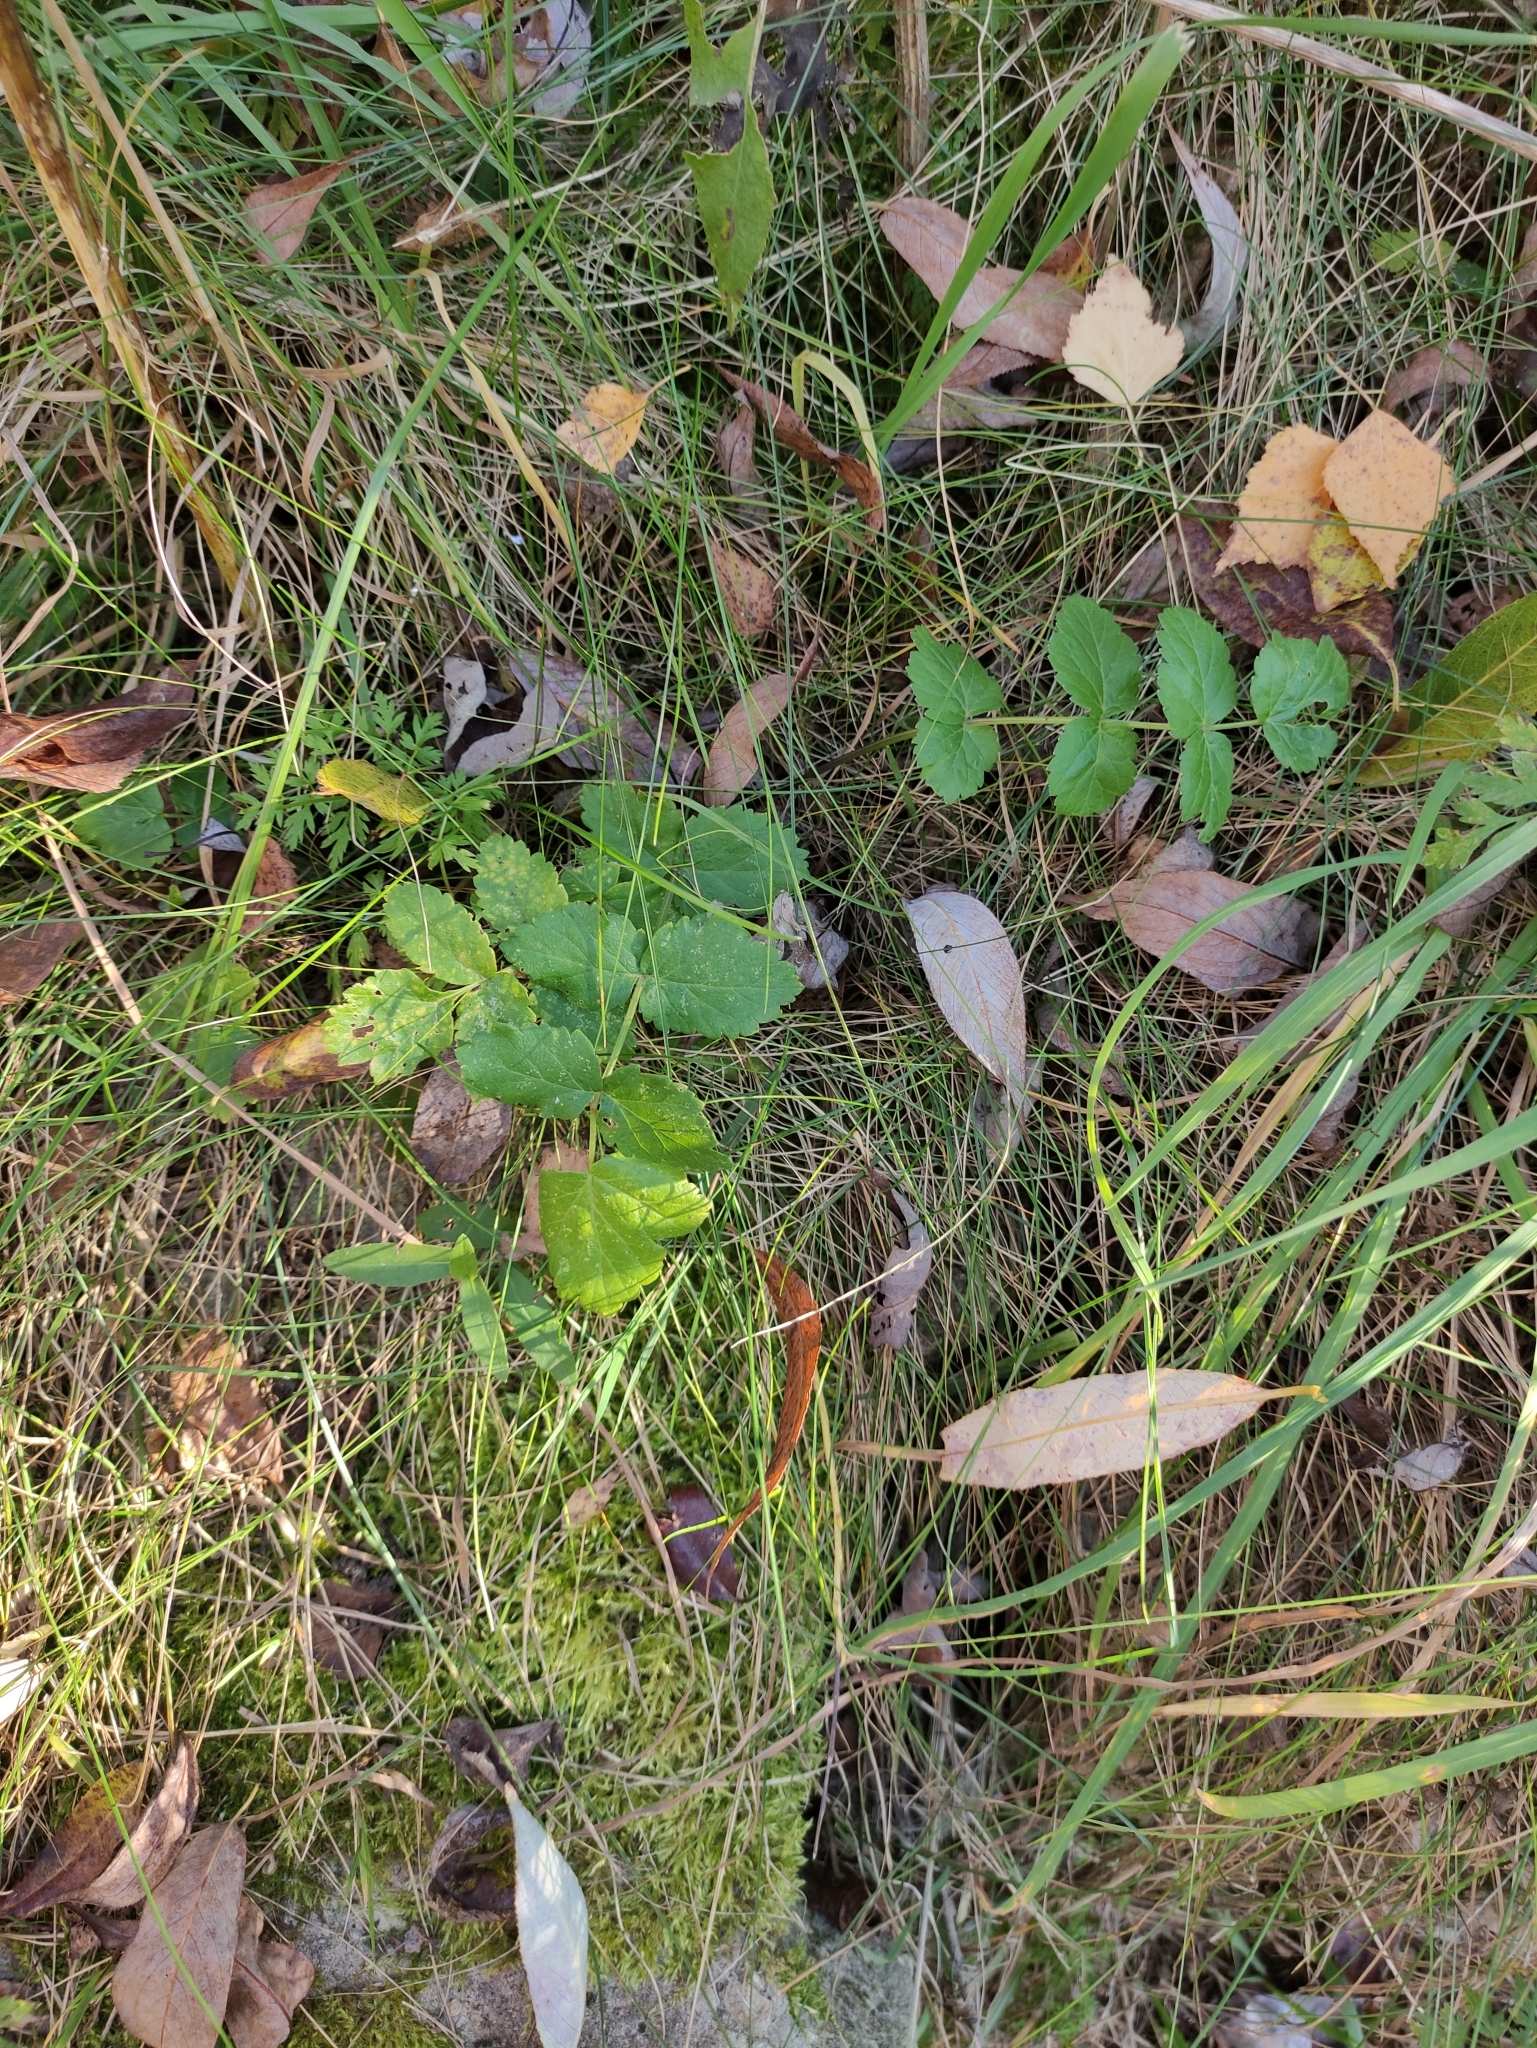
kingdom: Plantae
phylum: Tracheophyta
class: Magnoliopsida
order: Apiales
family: Apiaceae
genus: Pimpinella
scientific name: Pimpinella saxifraga
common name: Burnet-saxifrage
